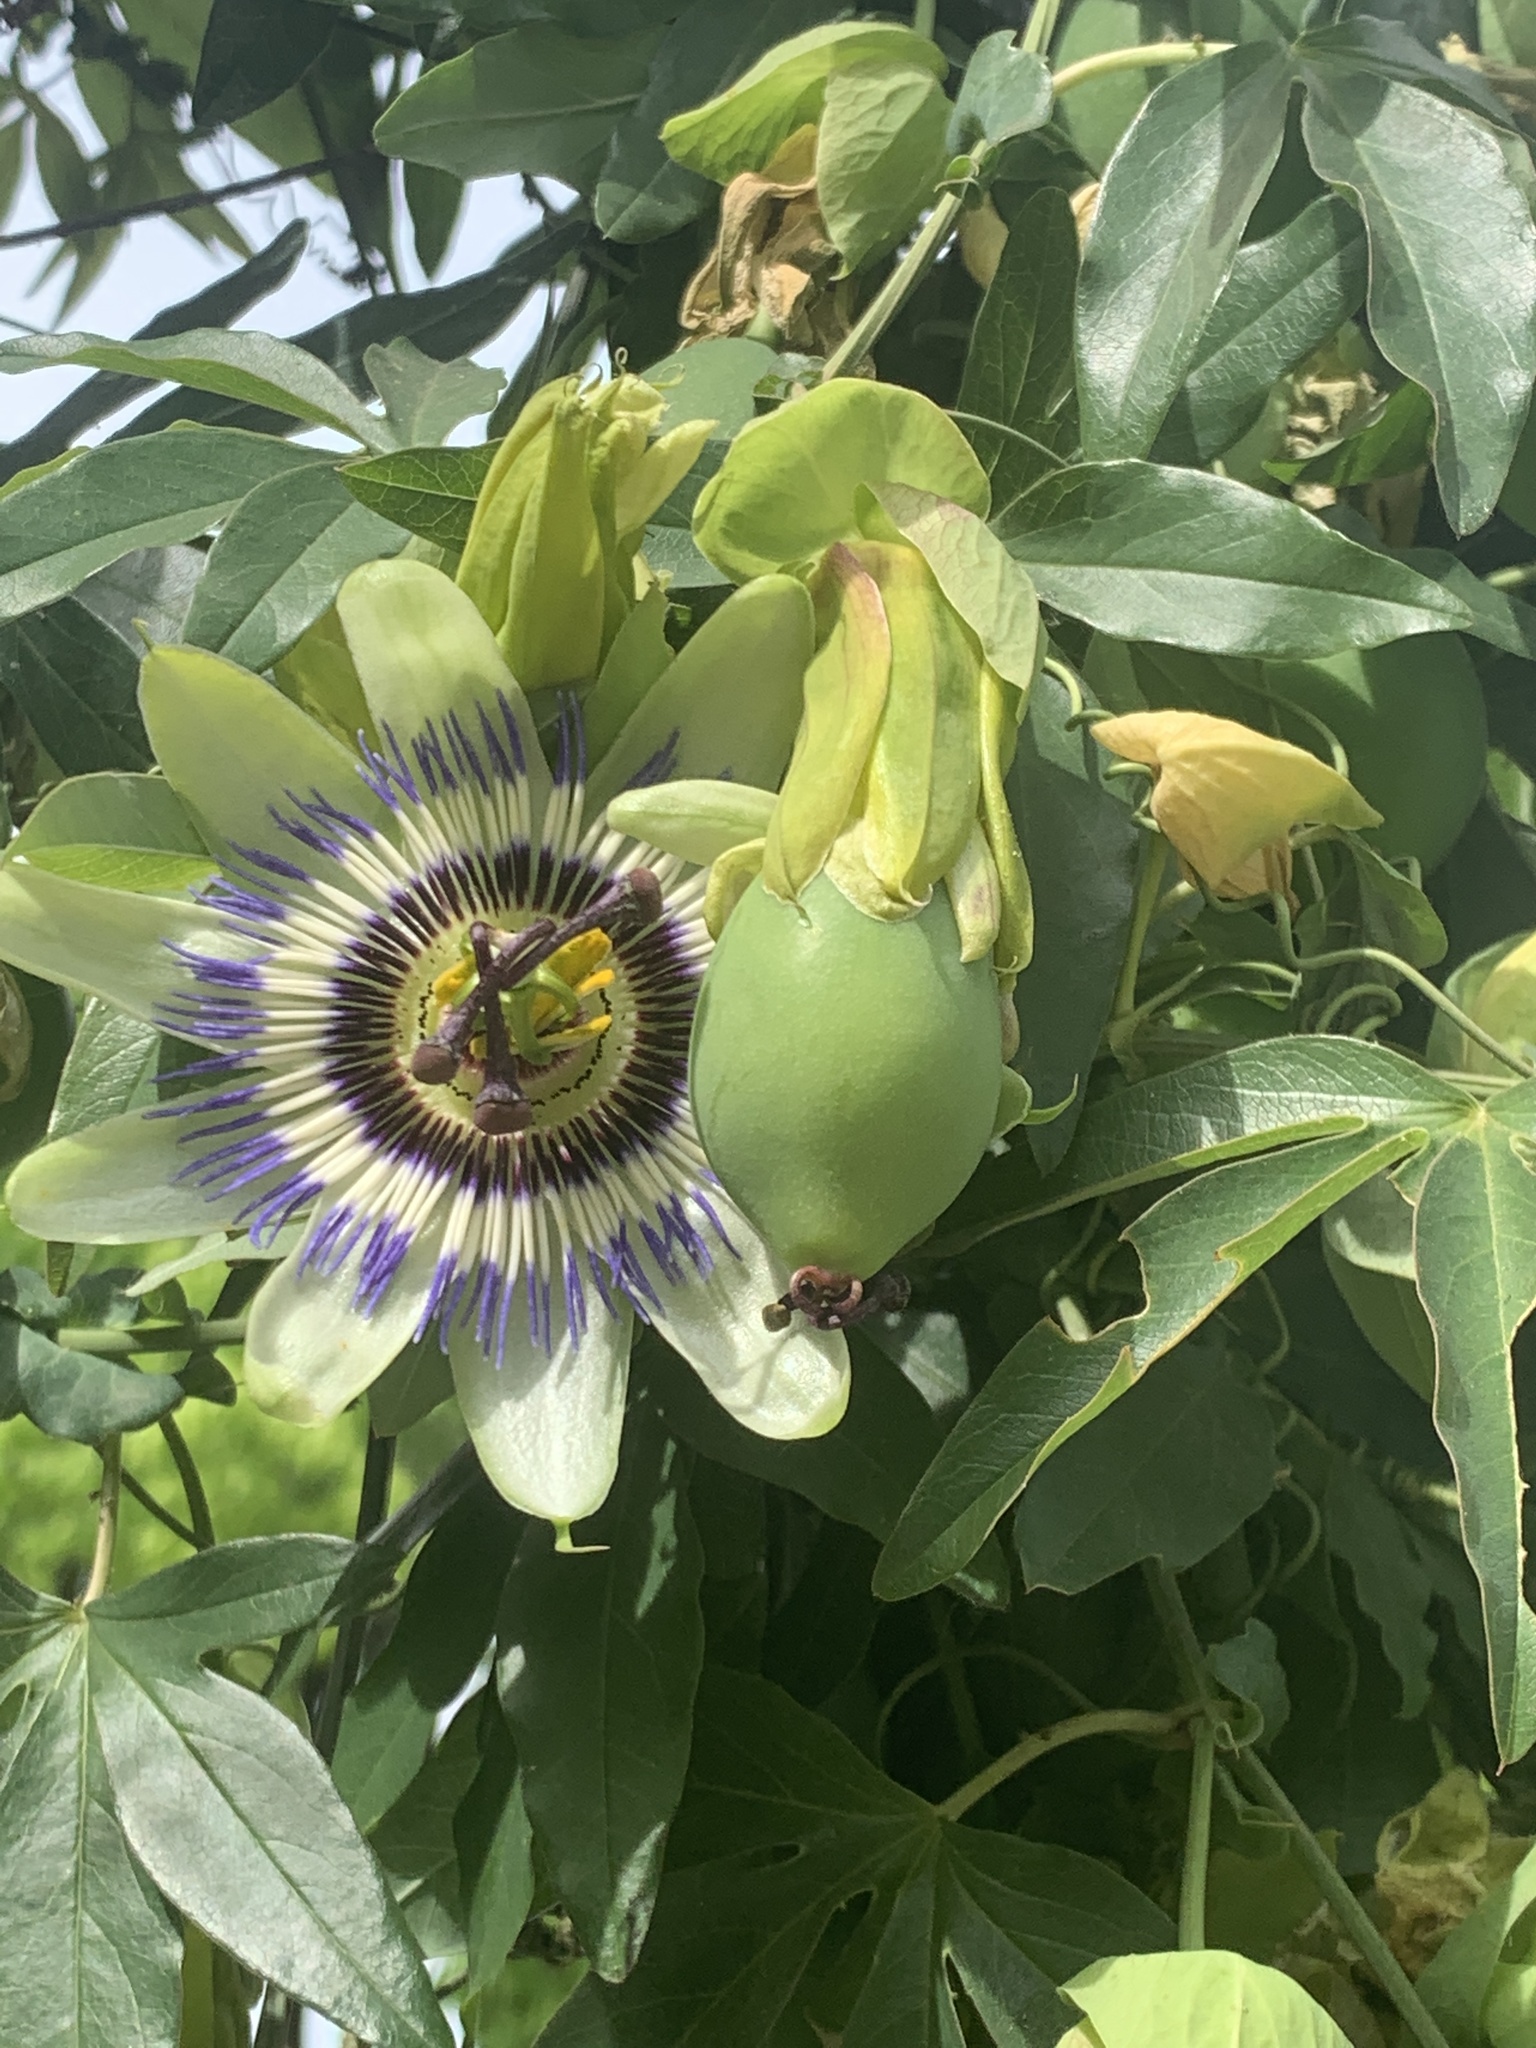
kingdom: Plantae
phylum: Tracheophyta
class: Magnoliopsida
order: Malpighiales
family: Passifloraceae
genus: Passiflora
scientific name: Passiflora caerulea
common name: Blue passionflower
